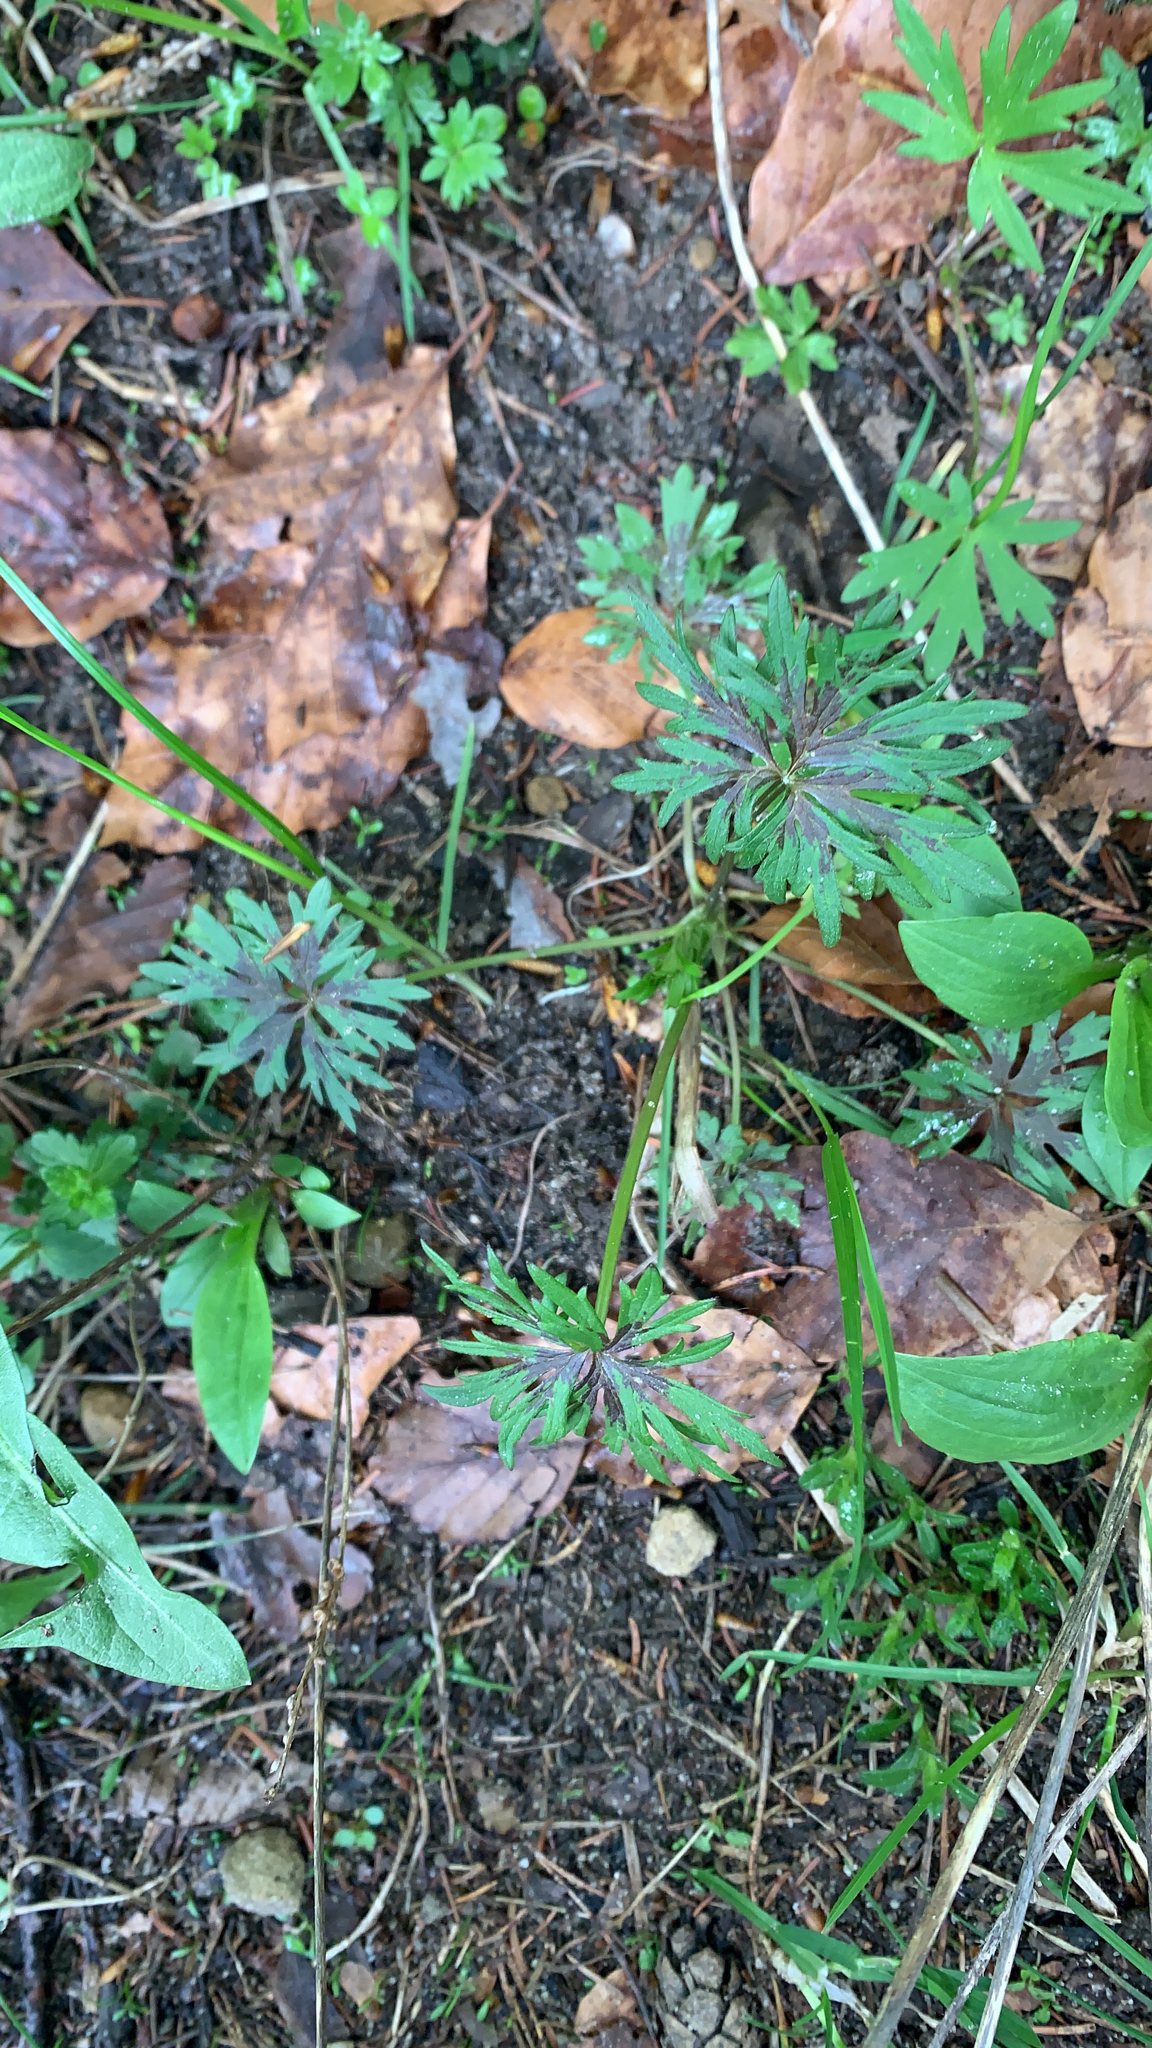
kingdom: Plantae
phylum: Tracheophyta
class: Magnoliopsida
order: Ranunculales
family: Ranunculaceae
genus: Ranunculus
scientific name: Ranunculus acris
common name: Meadow buttercup
